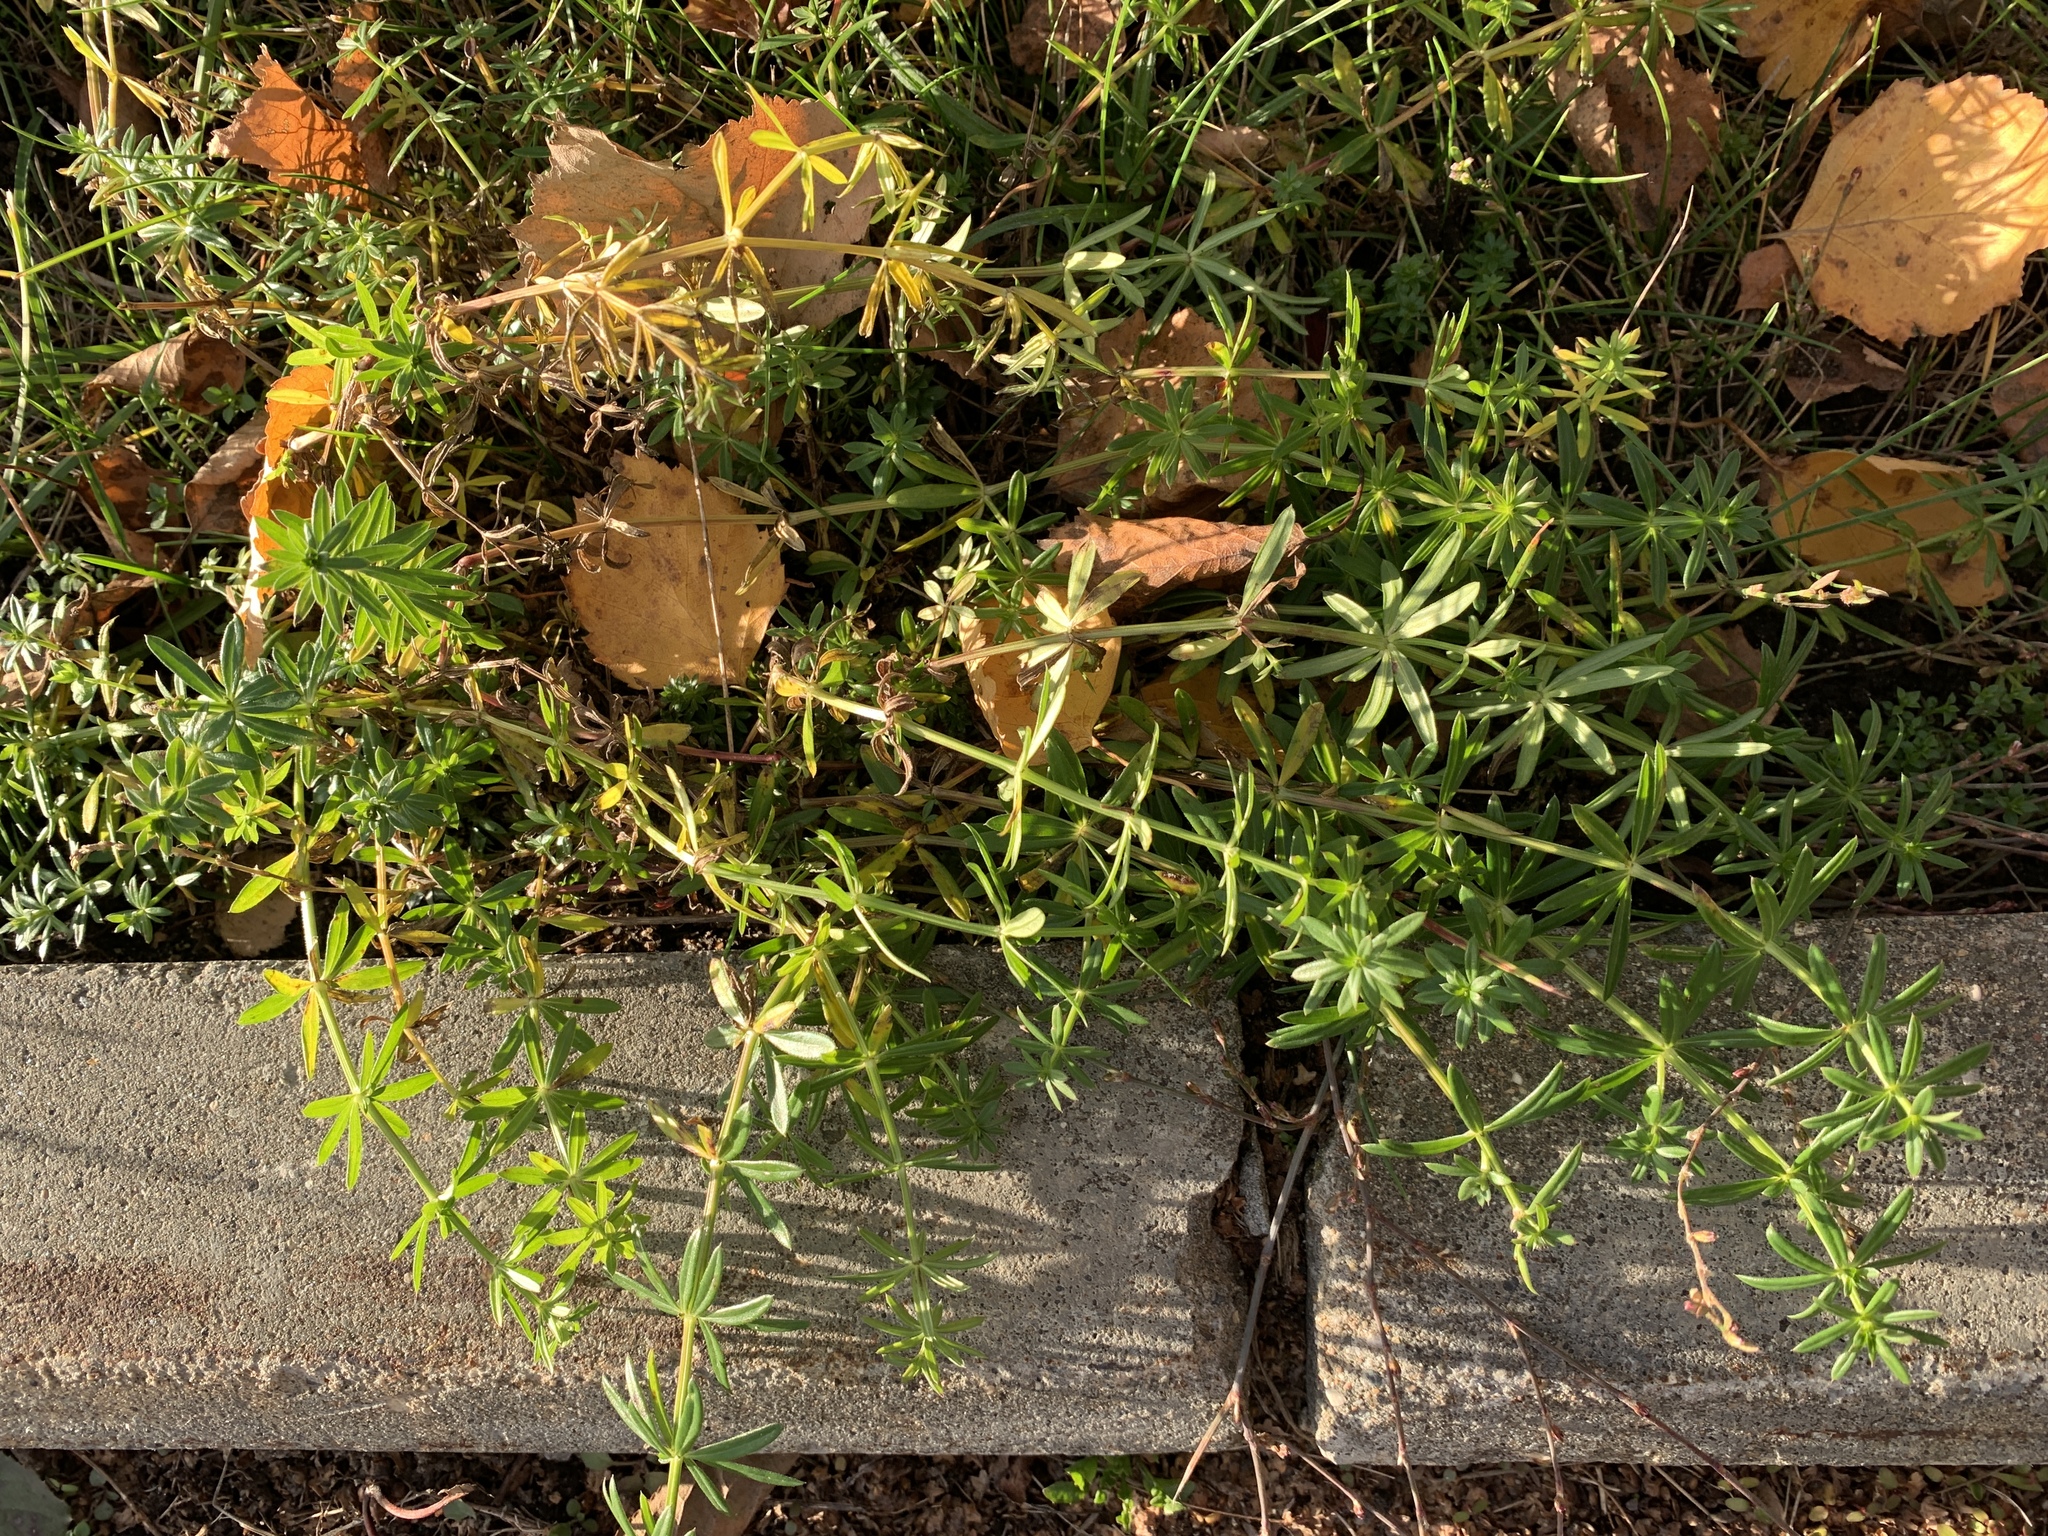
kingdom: Plantae
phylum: Tracheophyta
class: Magnoliopsida
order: Gentianales
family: Rubiaceae
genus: Galium
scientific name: Galium mollugo
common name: Hedge bedstraw
